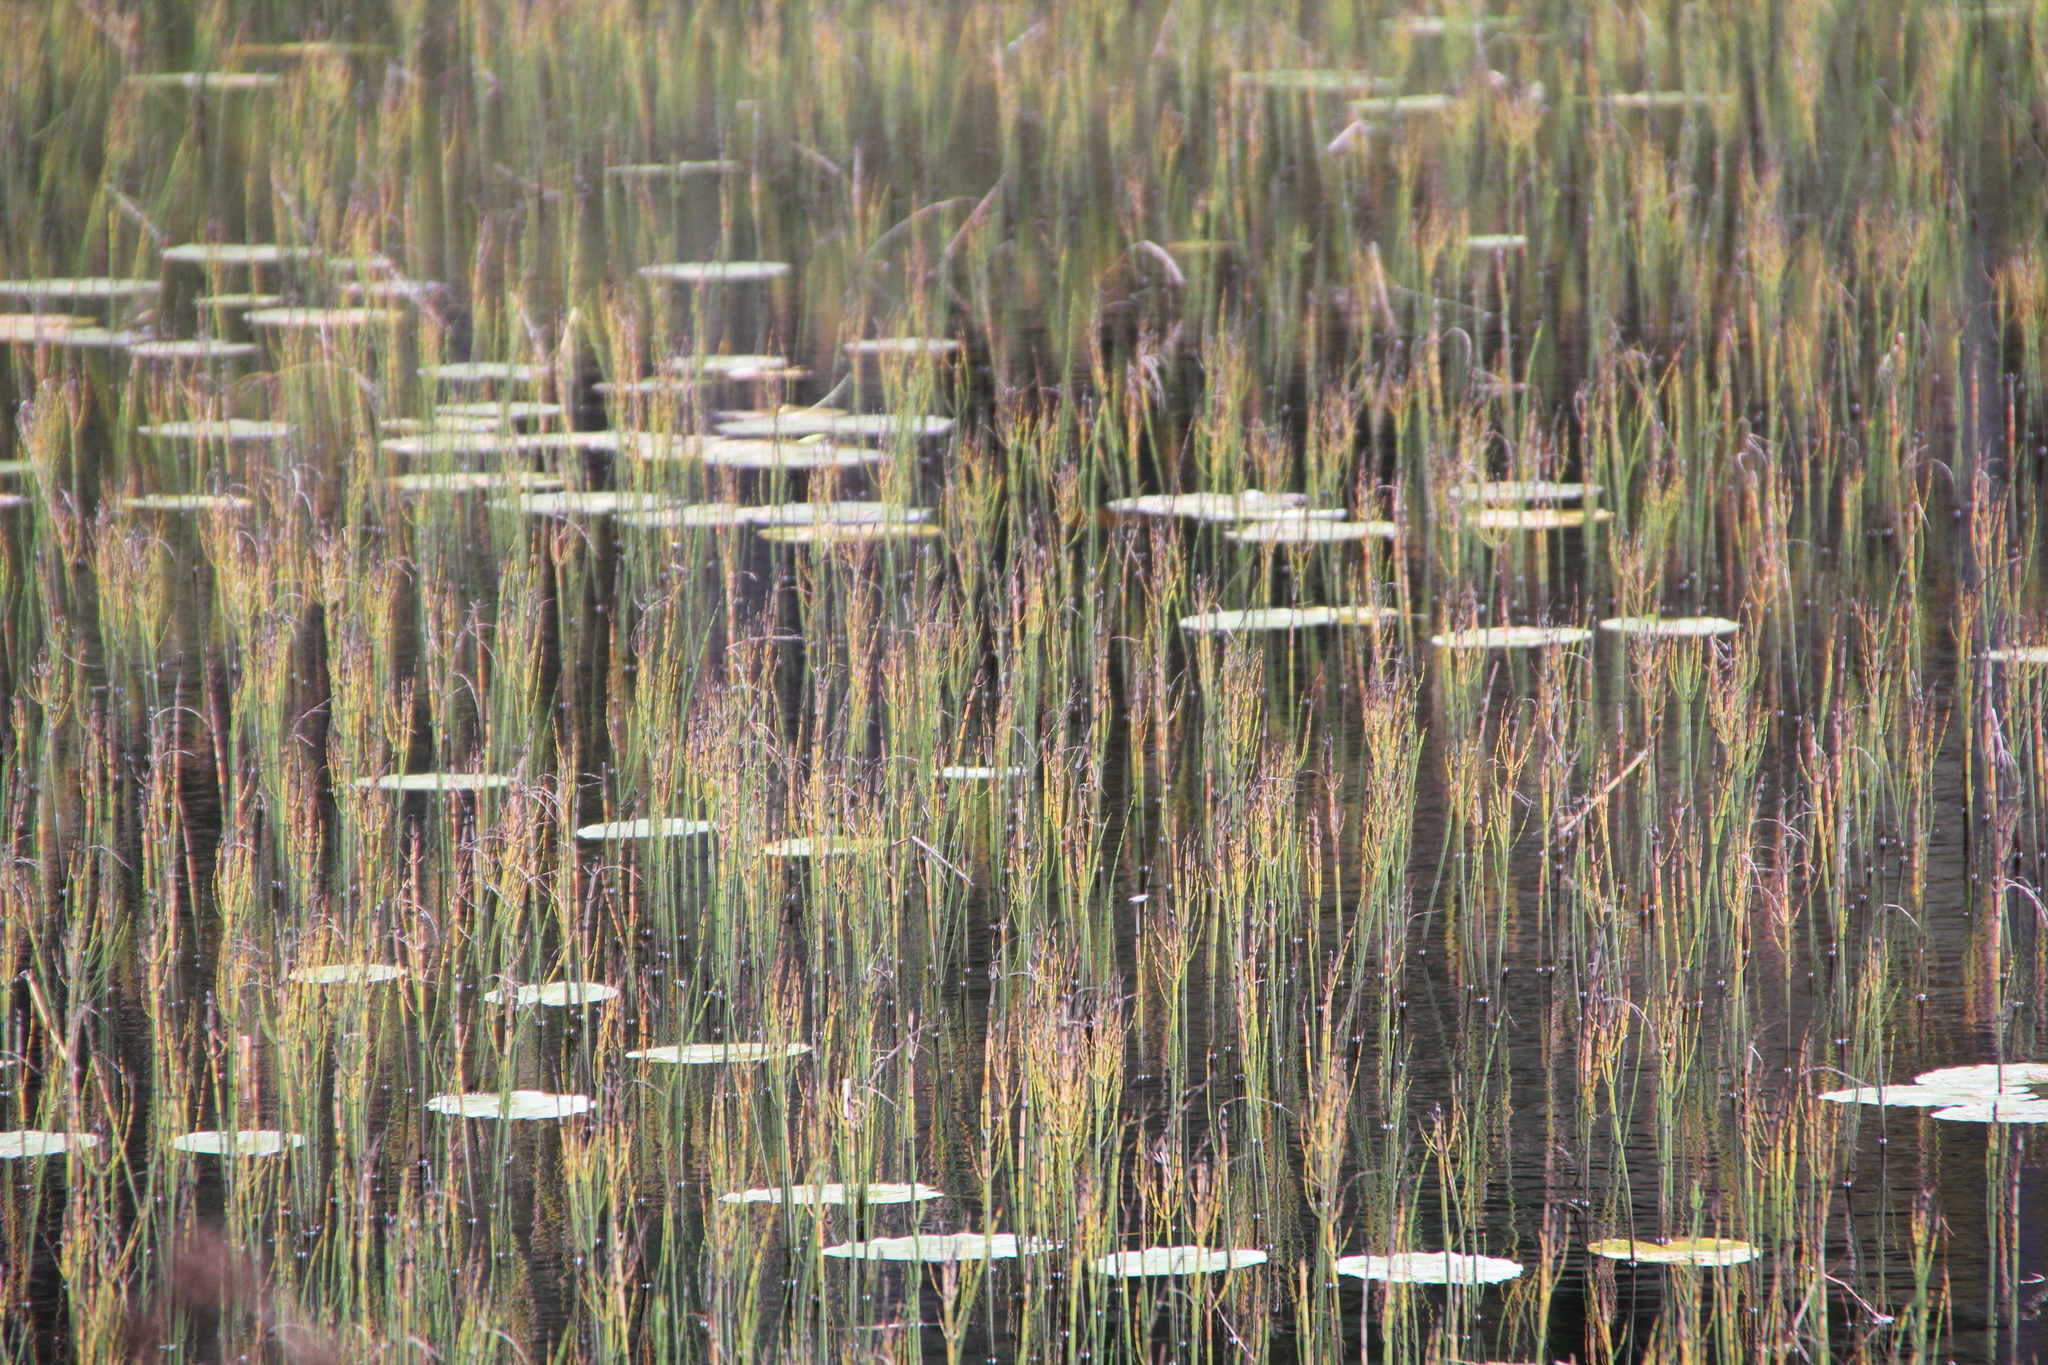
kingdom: Plantae
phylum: Tracheophyta
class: Polypodiopsida
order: Equisetales
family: Equisetaceae
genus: Equisetum
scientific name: Equisetum fluviatile
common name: Water horsetail
